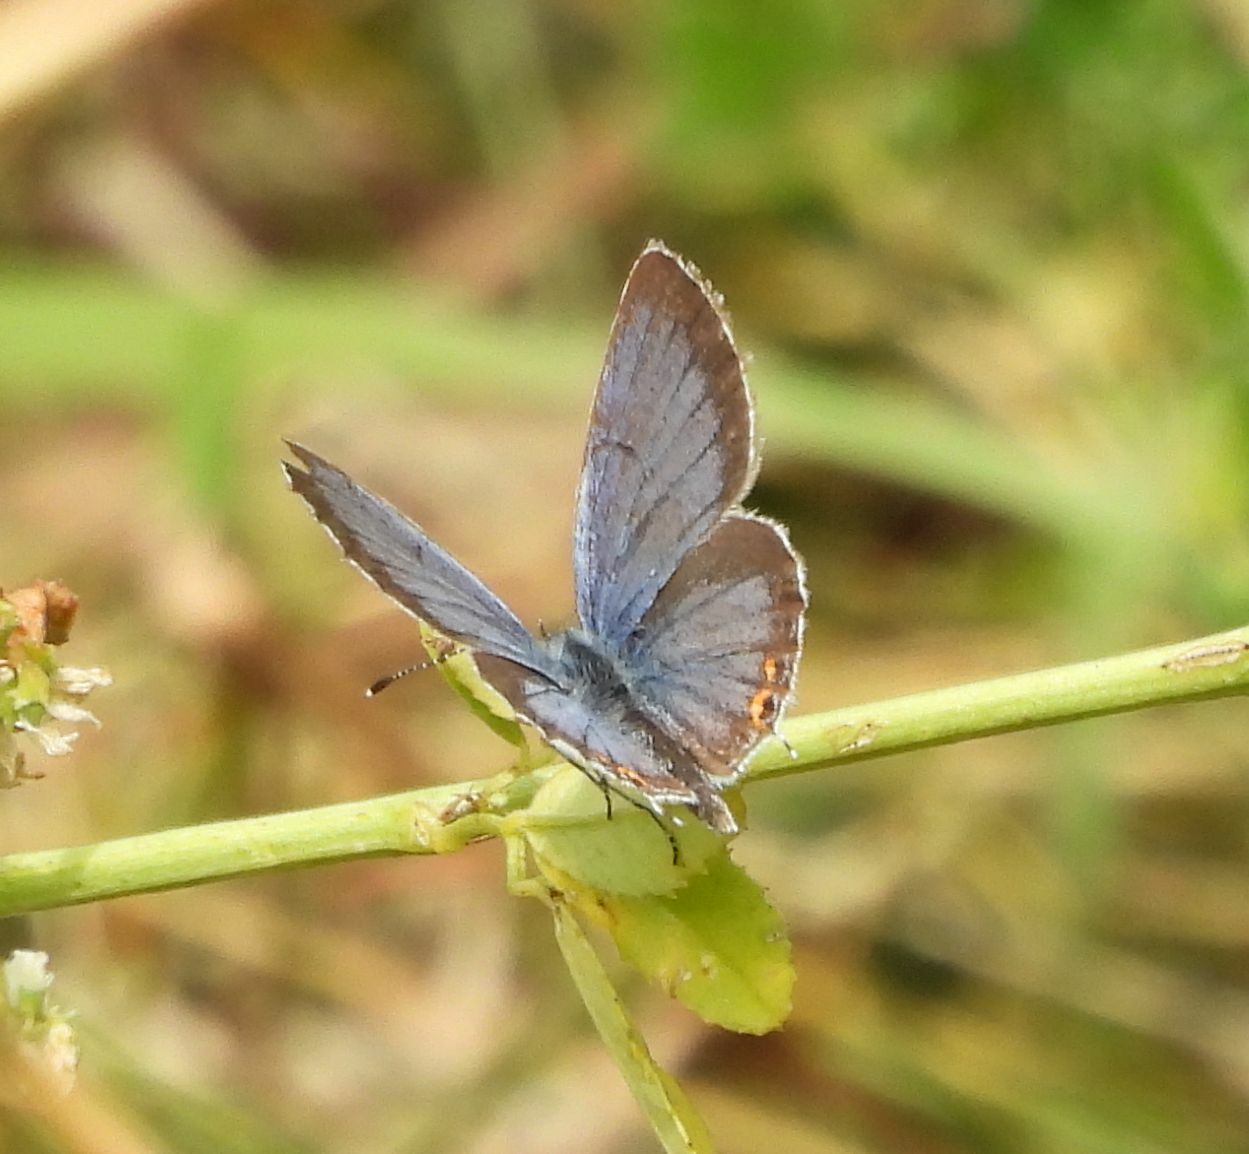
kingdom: Animalia
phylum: Arthropoda
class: Insecta
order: Lepidoptera
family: Lycaenidae
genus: Elkalyce
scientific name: Elkalyce comyntas
